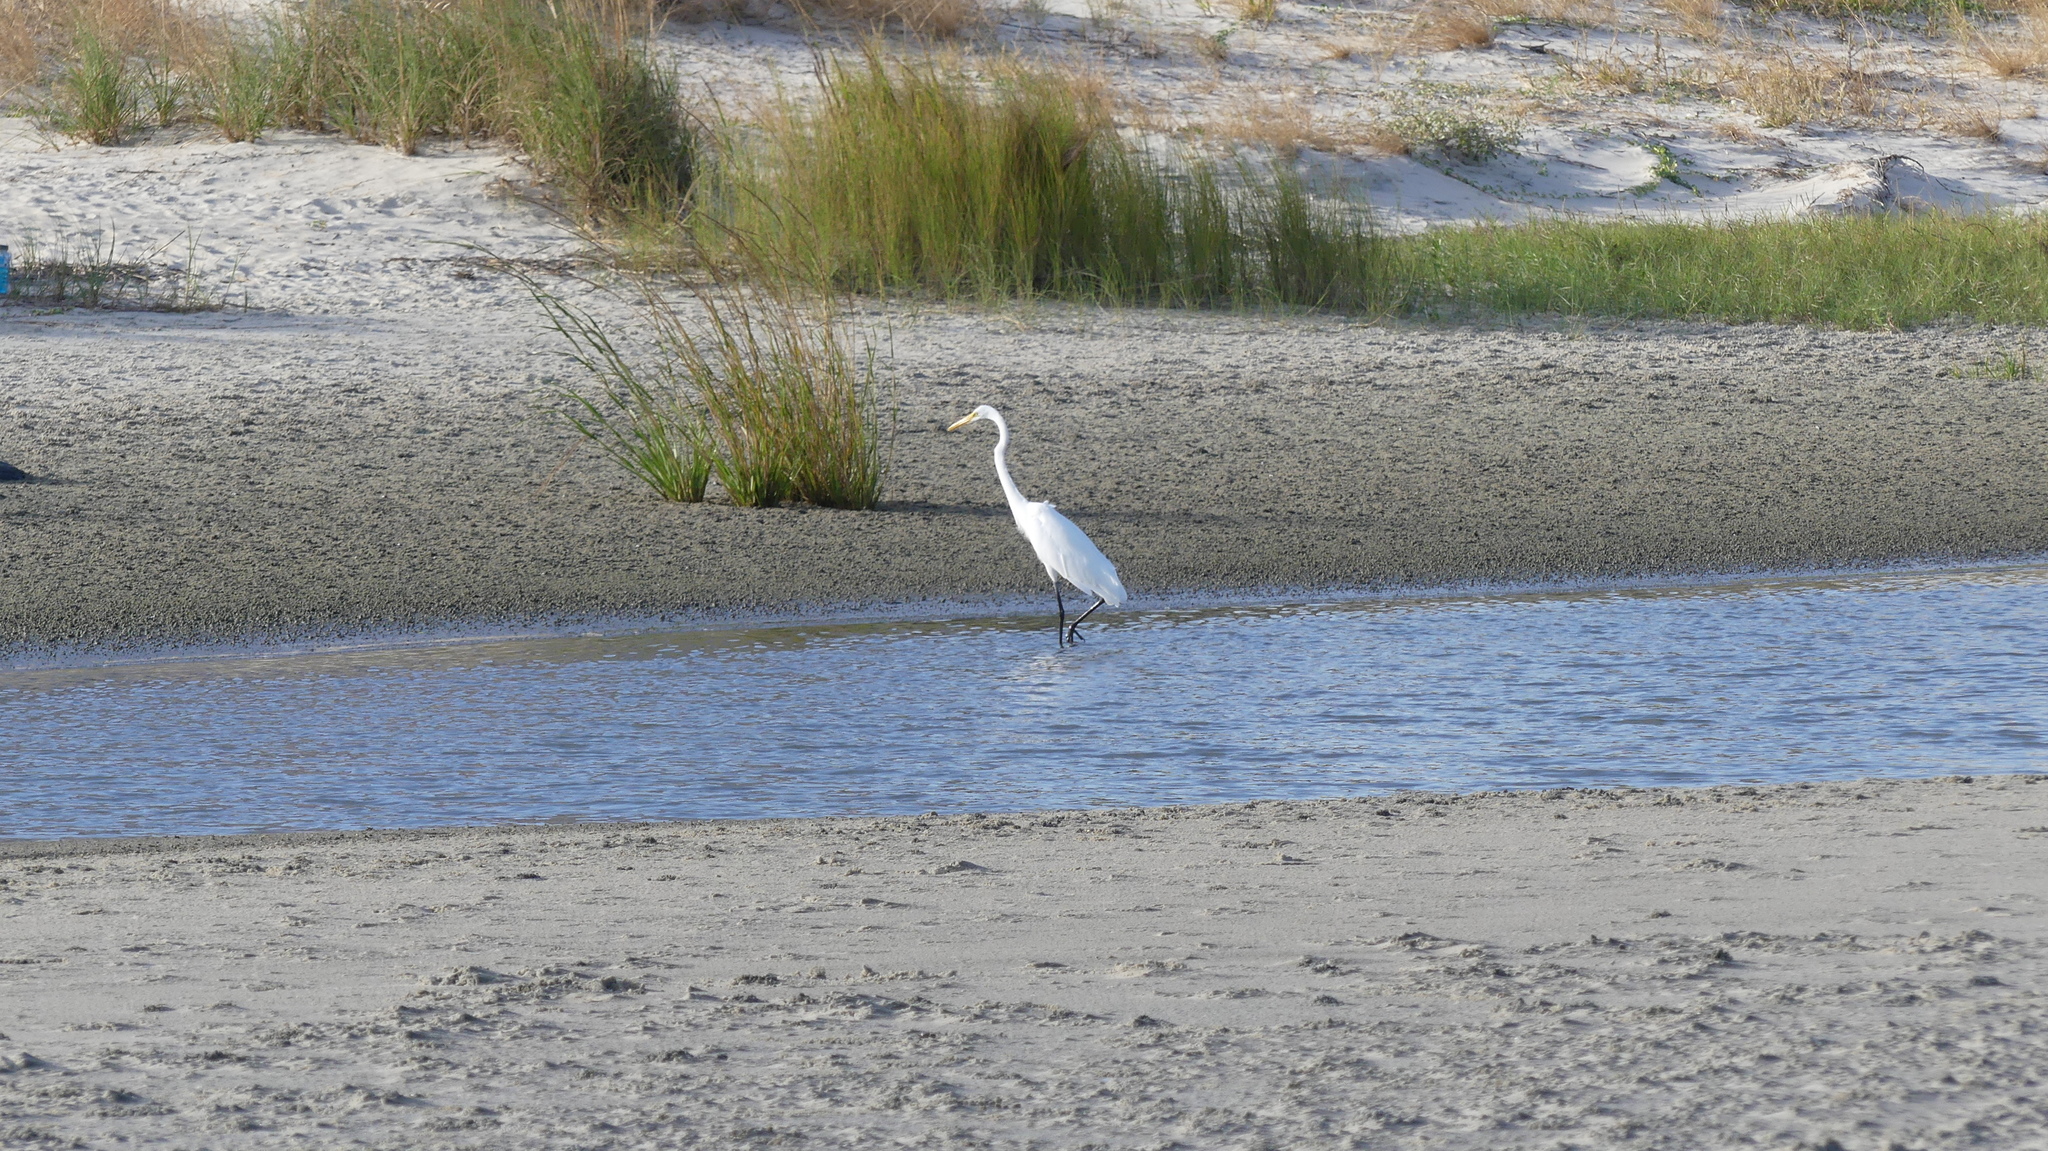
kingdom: Animalia
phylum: Chordata
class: Aves
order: Pelecaniformes
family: Ardeidae
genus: Ardea
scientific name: Ardea alba
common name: Great egret
